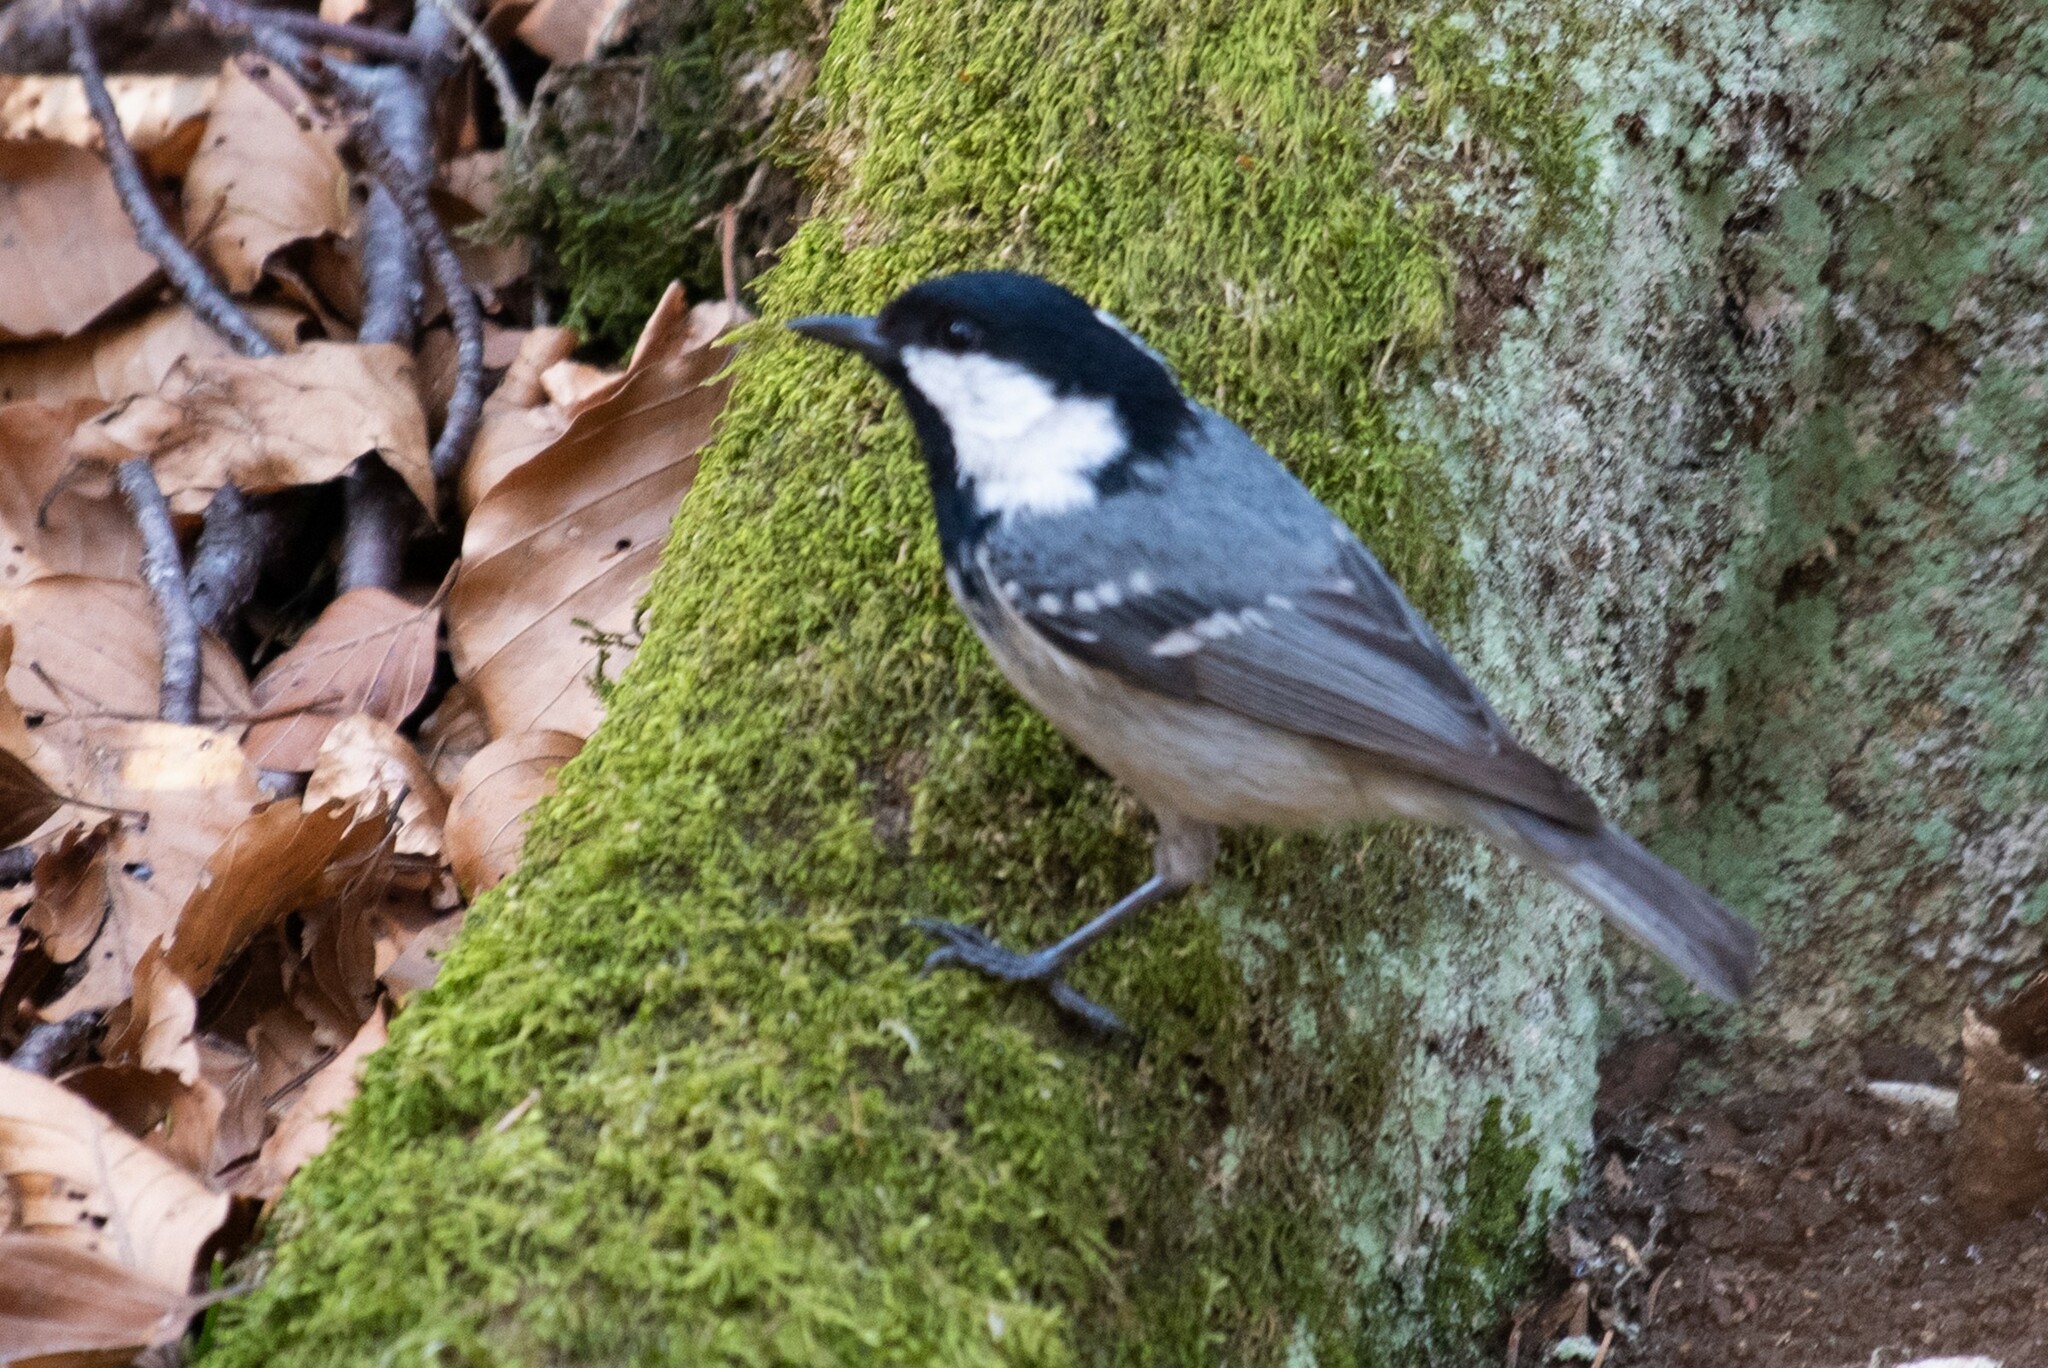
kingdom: Animalia
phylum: Chordata
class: Aves
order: Passeriformes
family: Paridae
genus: Periparus
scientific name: Periparus ater
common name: Coal tit
